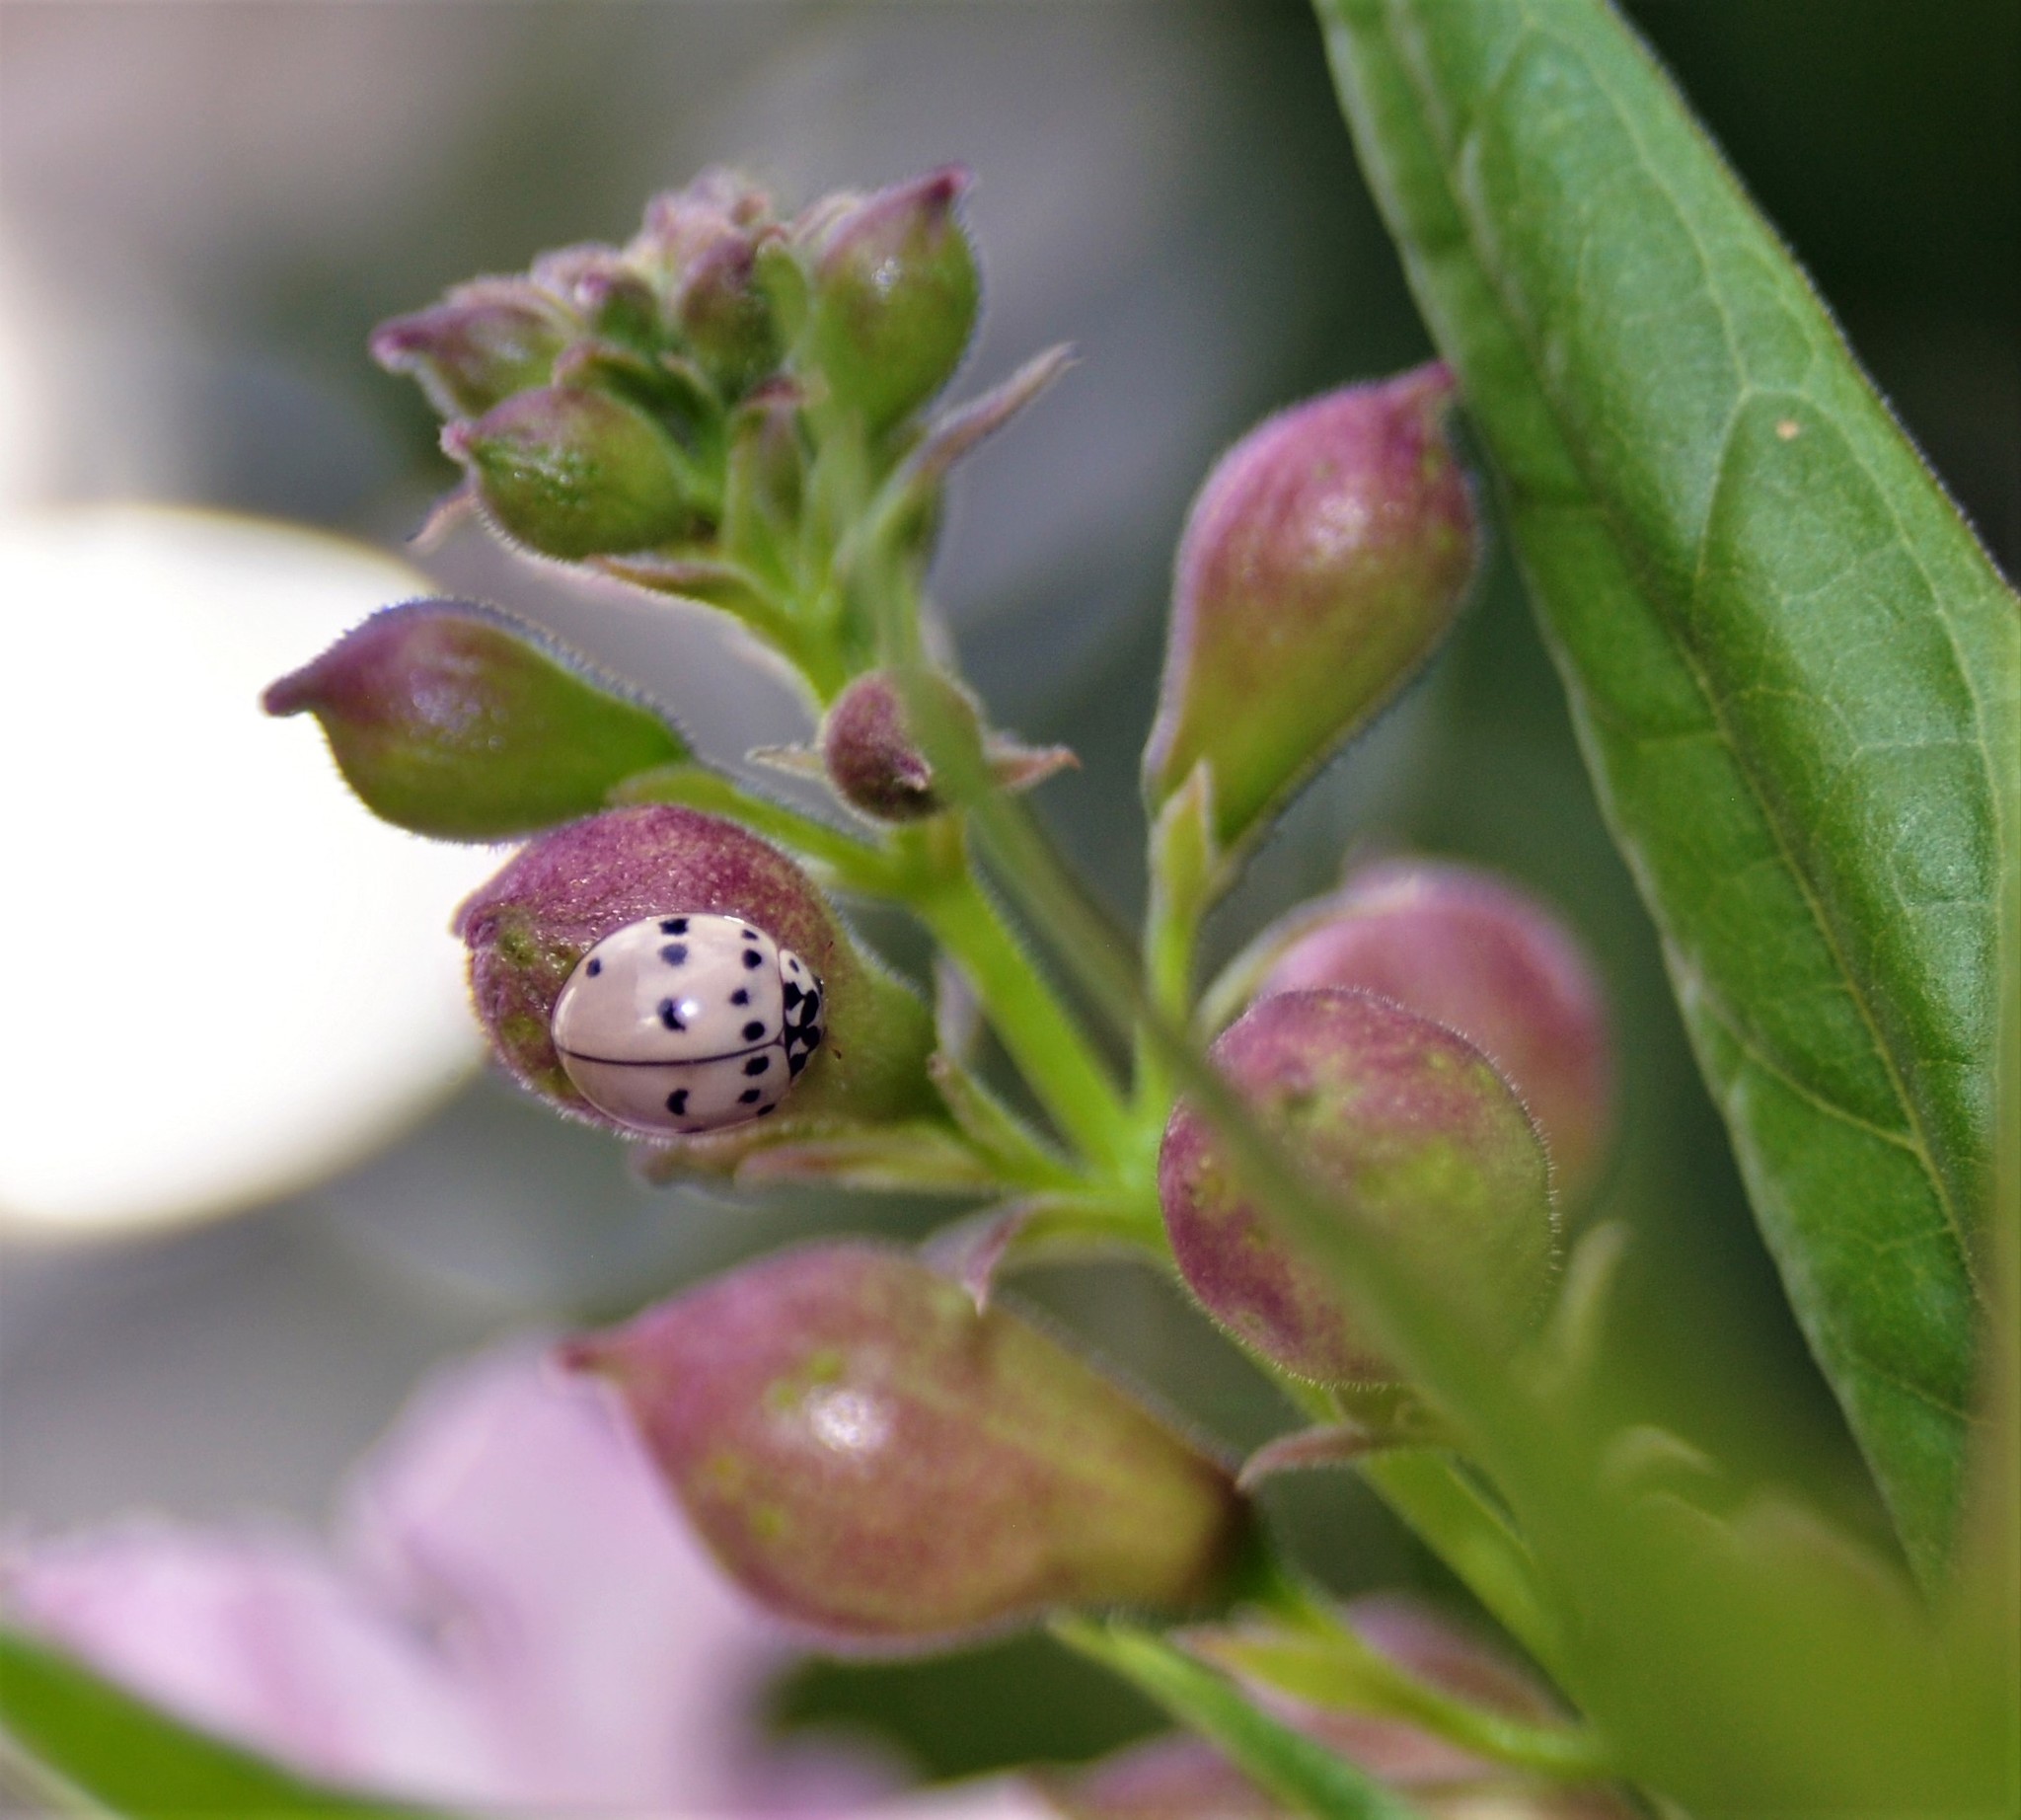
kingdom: Animalia
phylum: Arthropoda
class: Insecta
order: Coleoptera
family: Coccinellidae
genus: Olla
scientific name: Olla v-nigrum
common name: Ashy gray lady beetle
